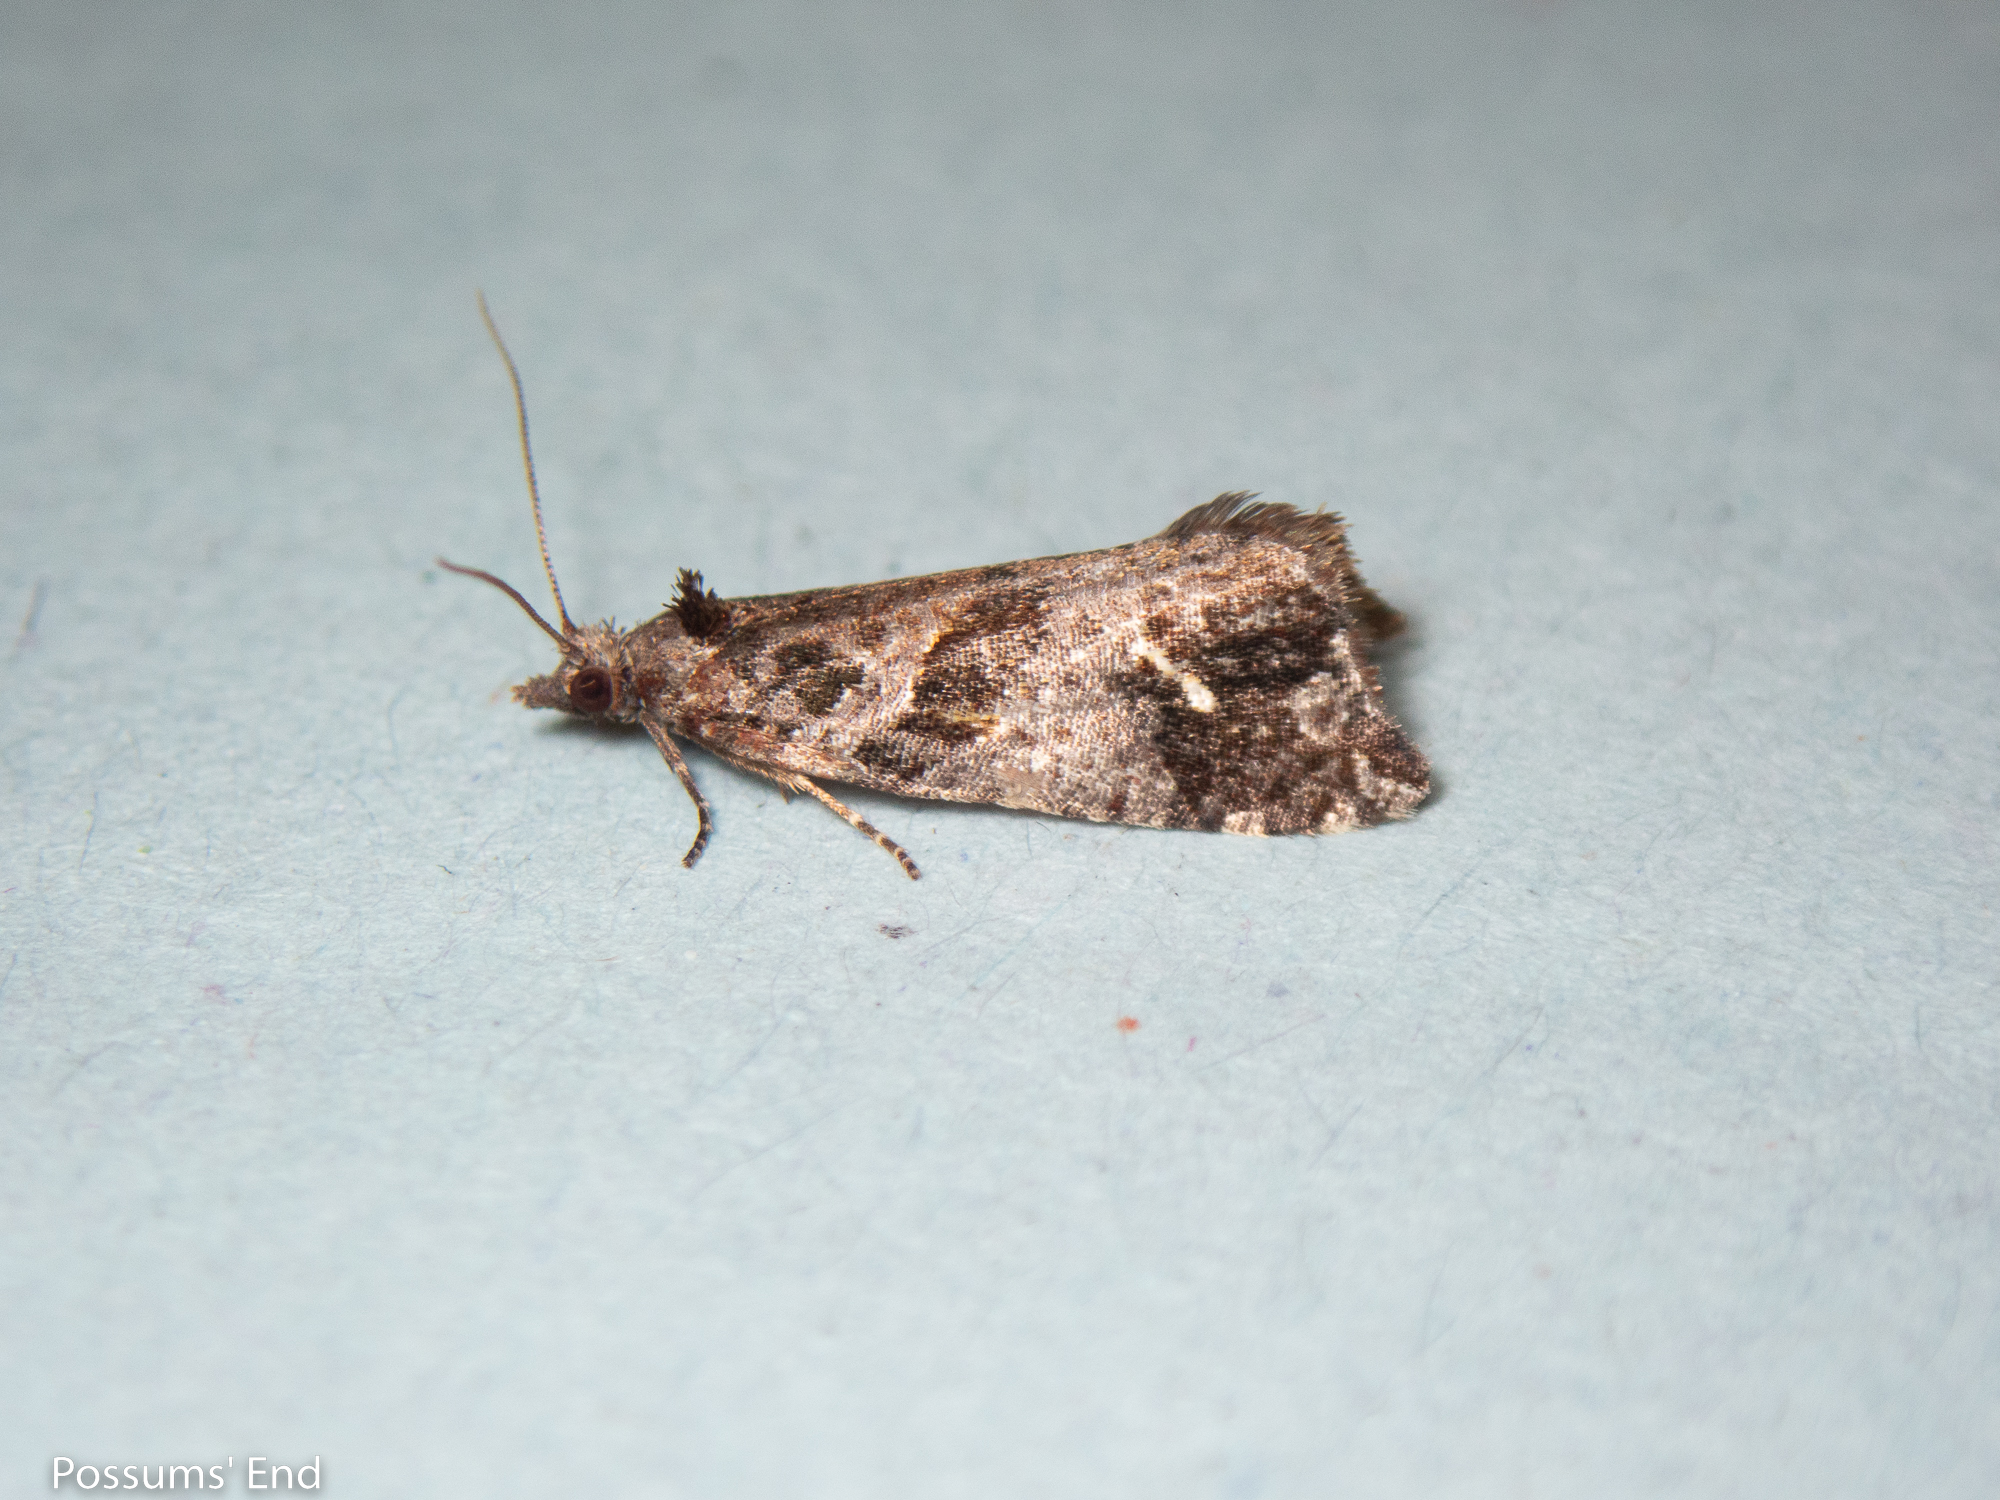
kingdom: Animalia
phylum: Arthropoda
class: Insecta
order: Lepidoptera
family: Tortricidae
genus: Pyrgotis
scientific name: Pyrgotis plagiatana
